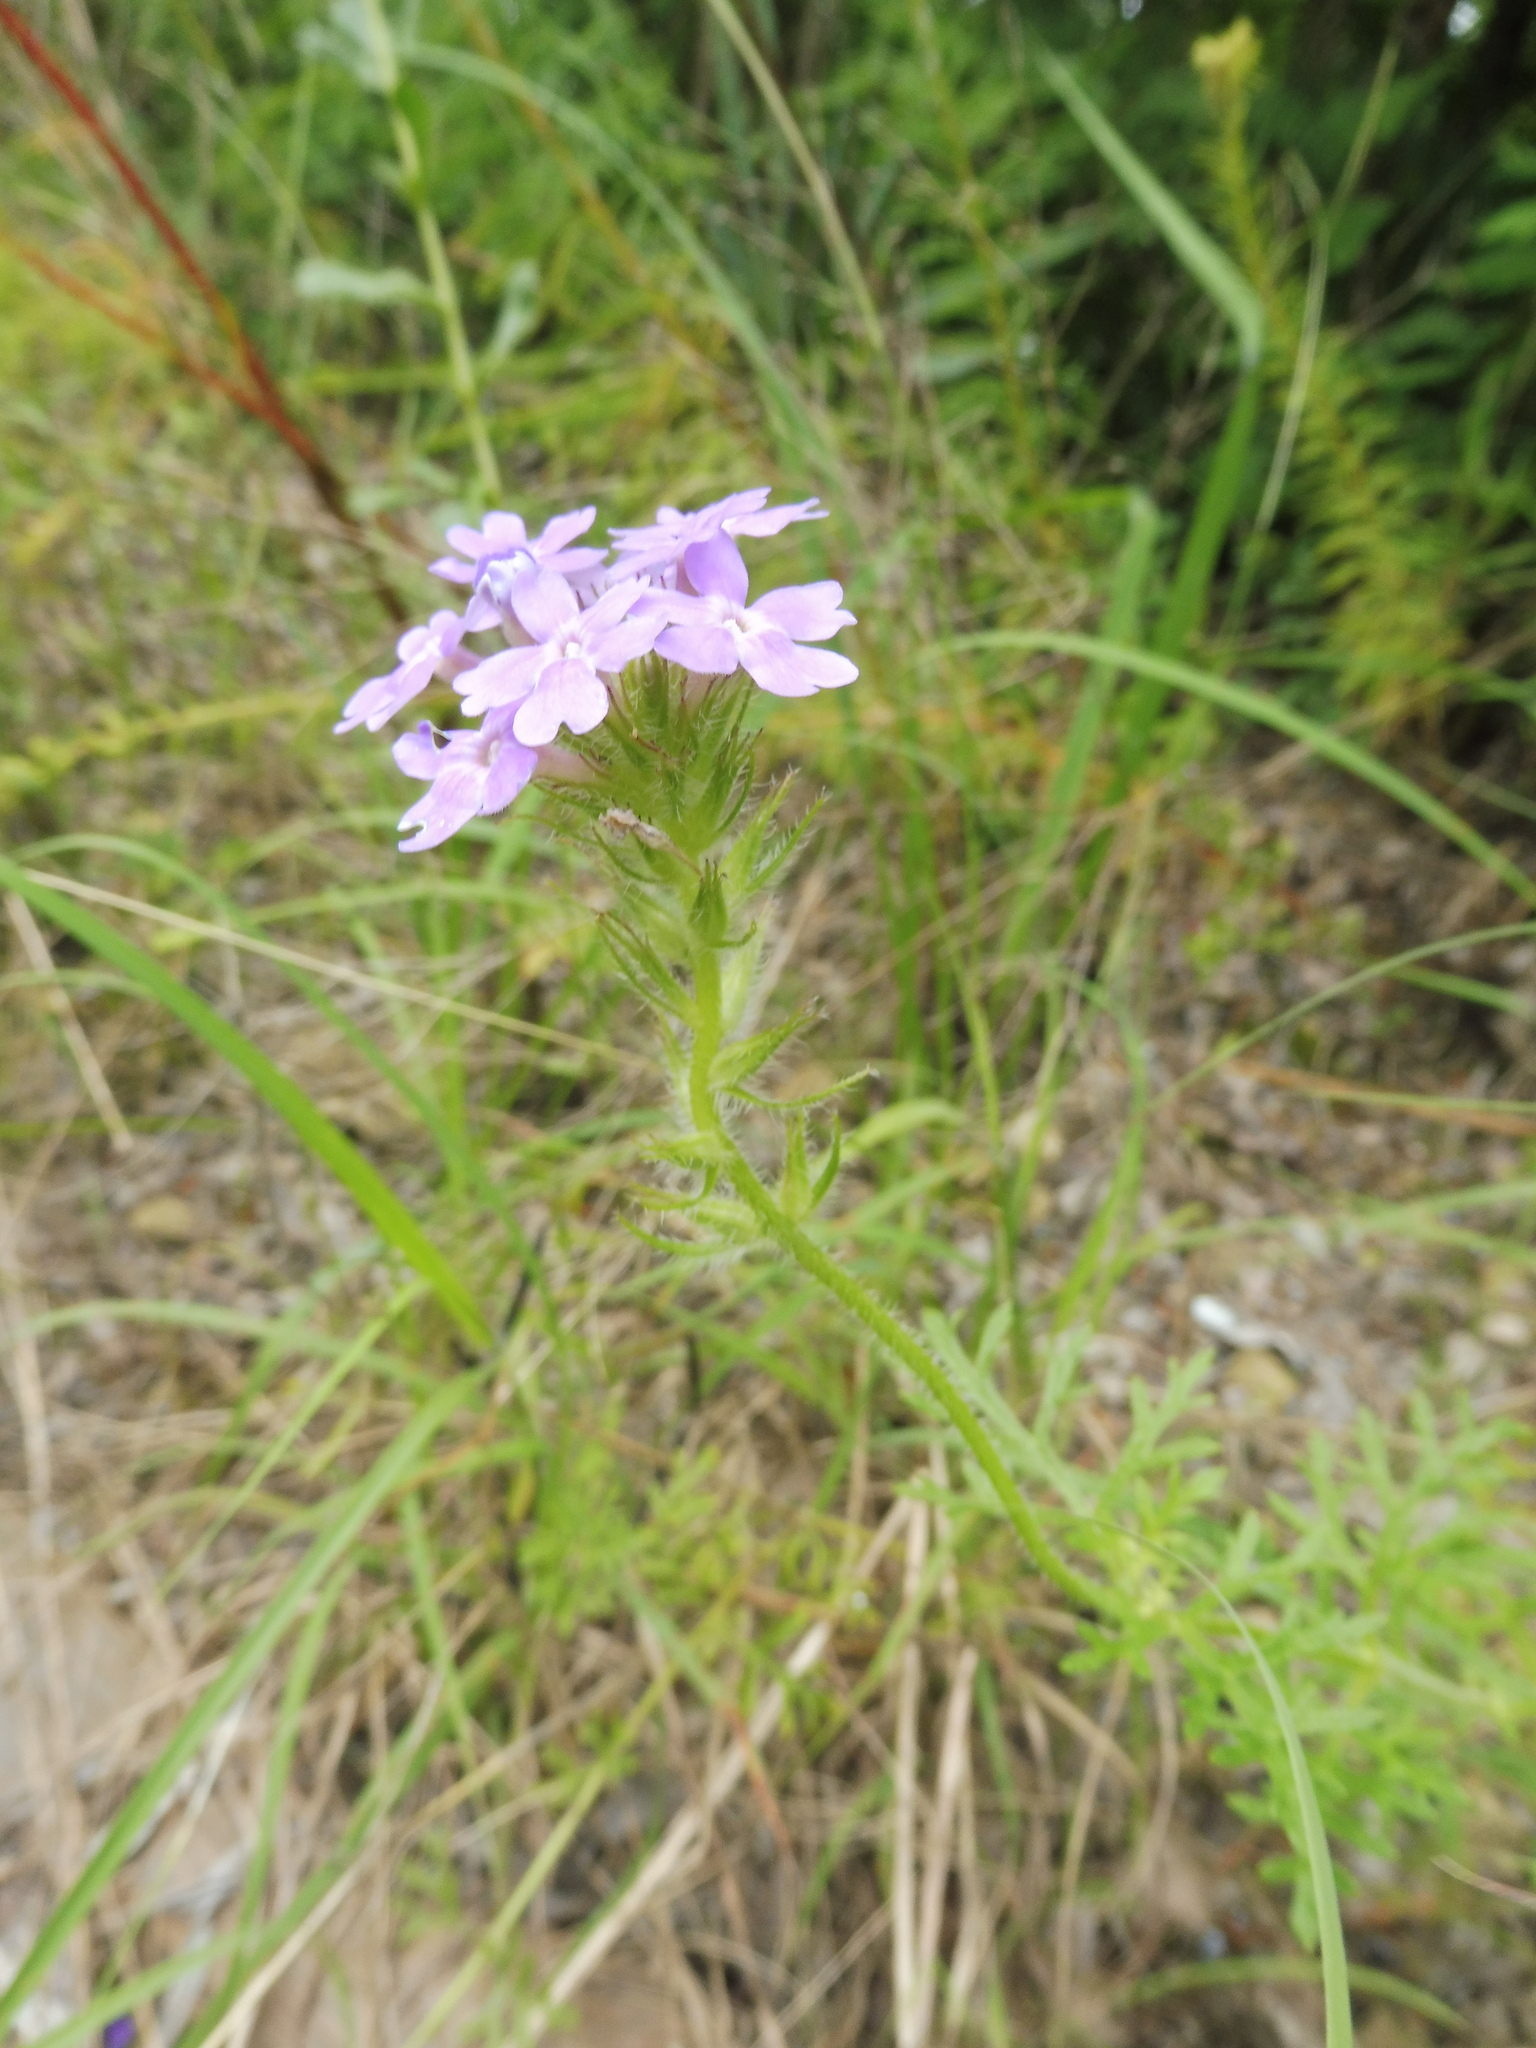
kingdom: Plantae
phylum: Tracheophyta
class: Magnoliopsida
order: Lamiales
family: Verbenaceae
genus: Verbena
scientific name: Verbena bipinnatifida
